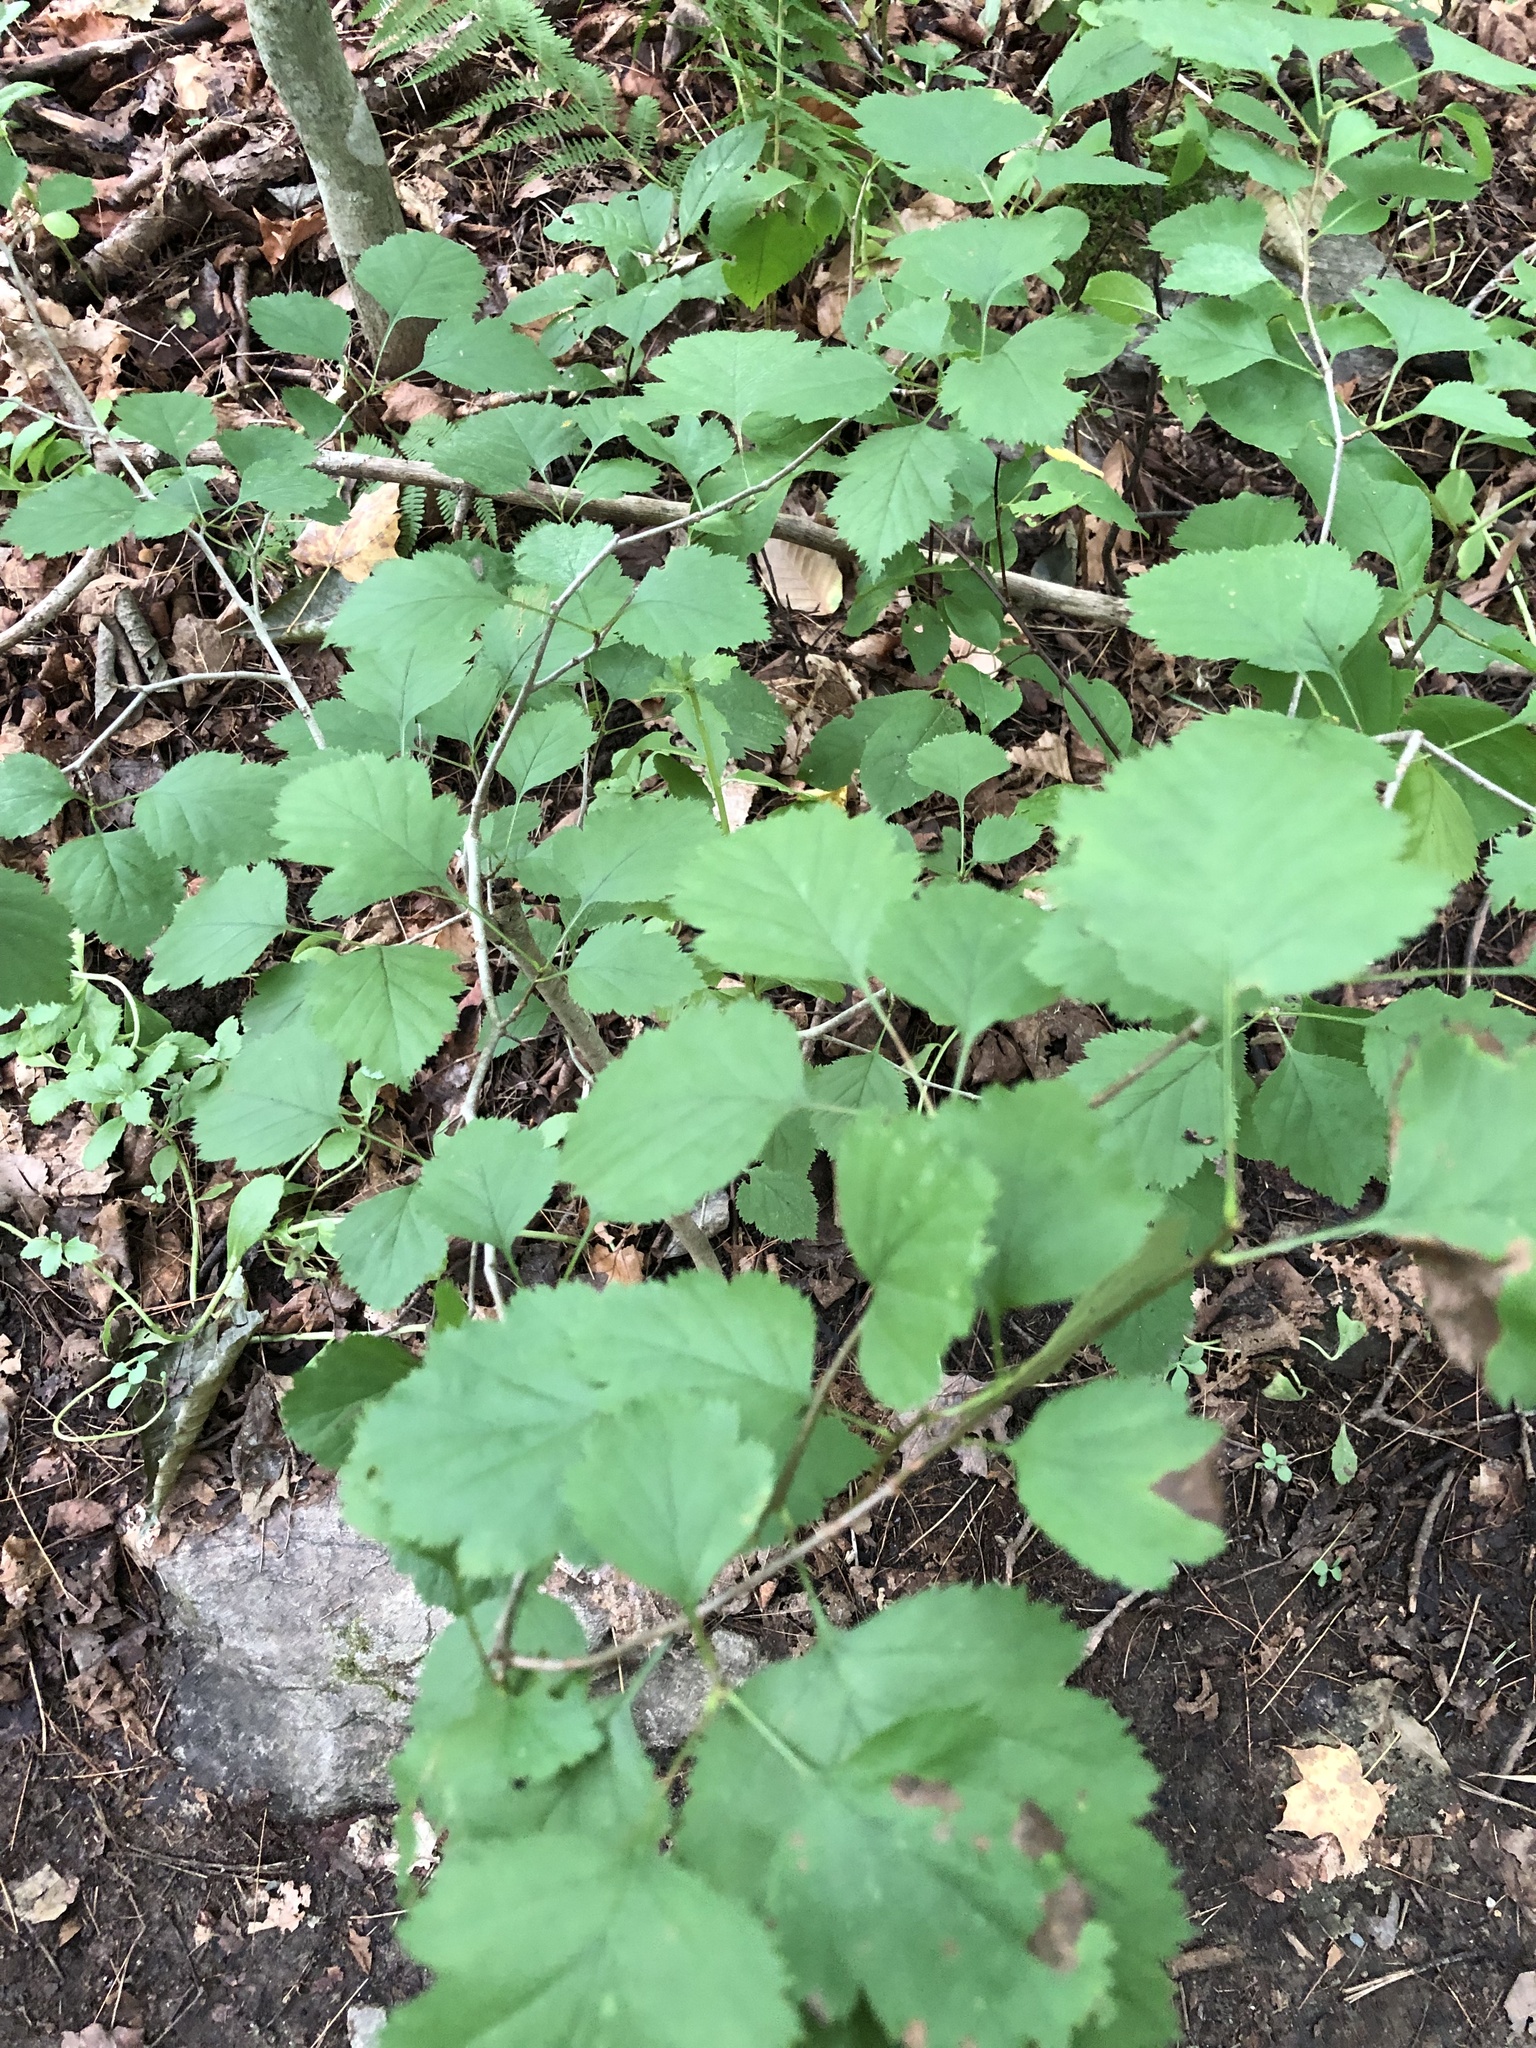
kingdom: Plantae
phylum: Tracheophyta
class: Magnoliopsida
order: Dipsacales
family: Viburnaceae
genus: Viburnum
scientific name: Viburnum acerifolium
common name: Dockmackie
